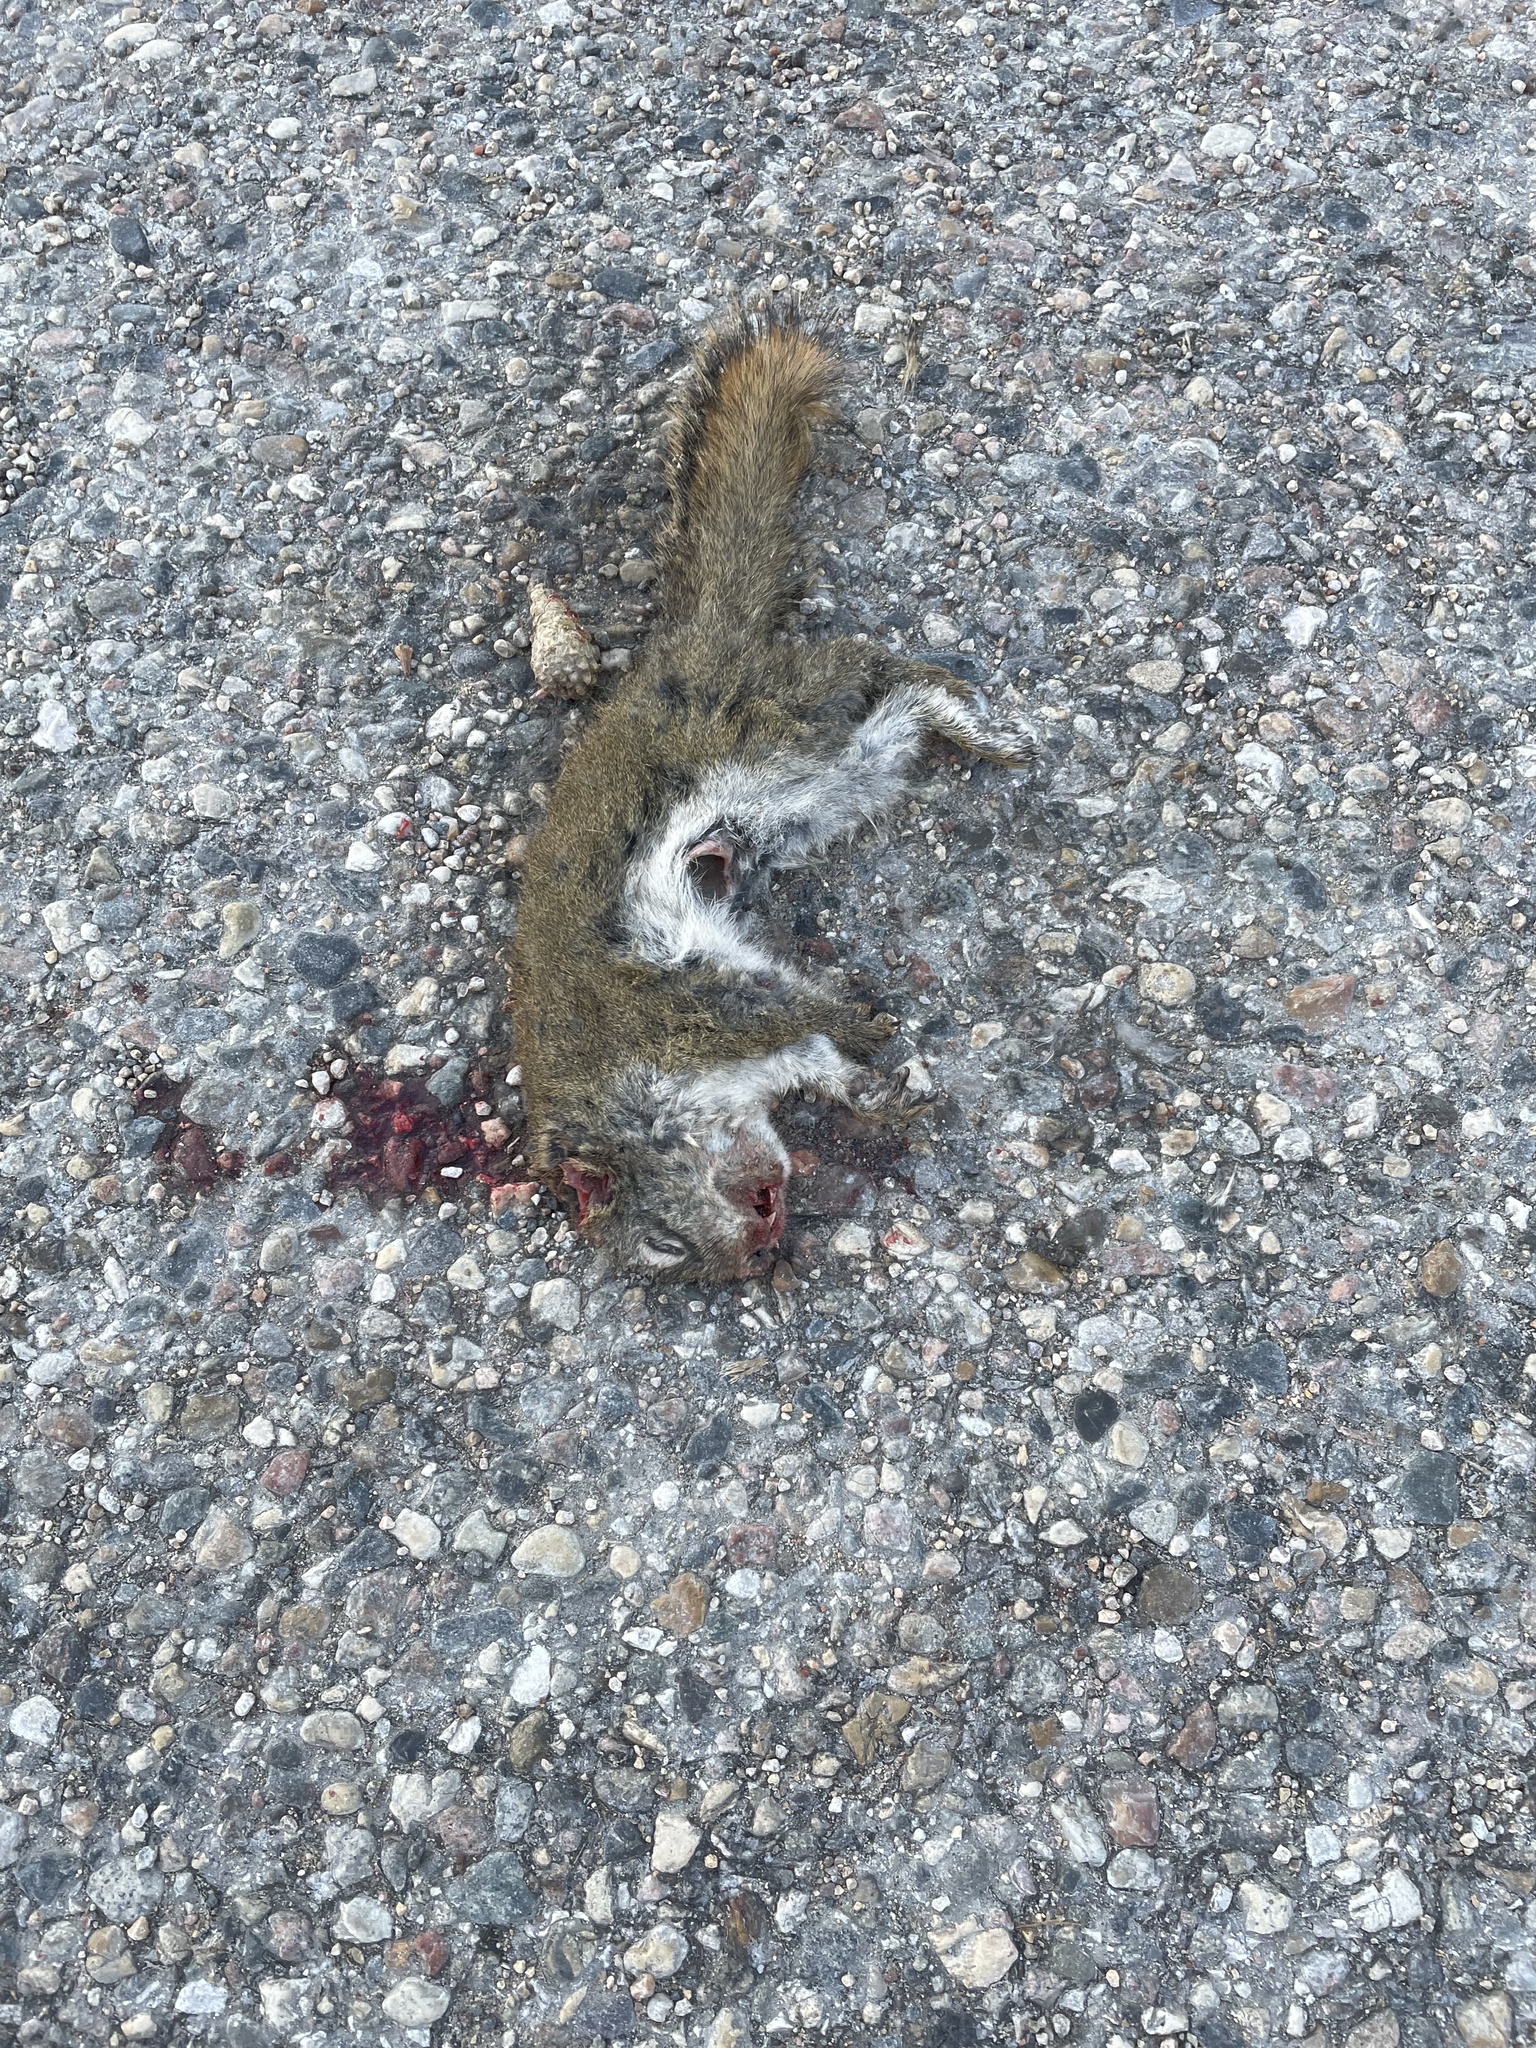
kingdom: Animalia
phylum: Chordata
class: Mammalia
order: Rodentia
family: Sciuridae
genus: Tamiasciurus
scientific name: Tamiasciurus hudsonicus
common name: Red squirrel
